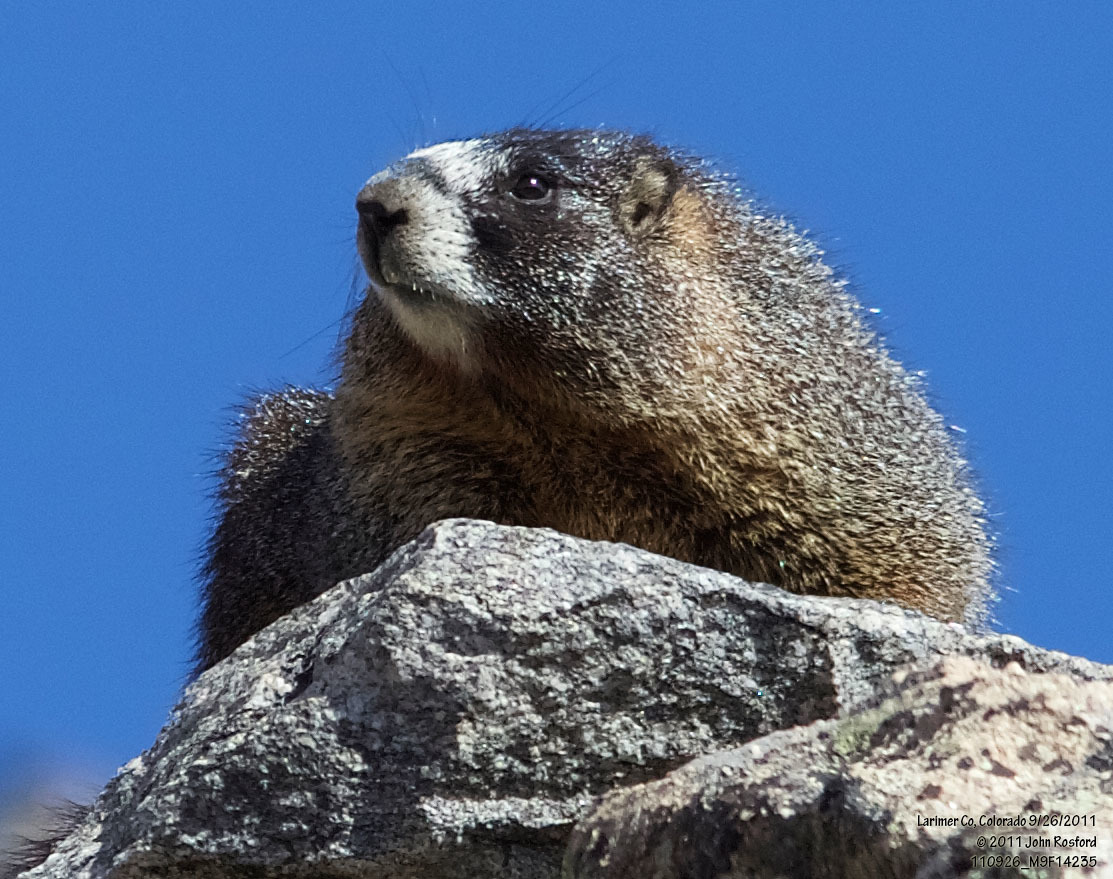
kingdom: Animalia
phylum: Chordata
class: Mammalia
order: Rodentia
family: Sciuridae
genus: Marmota
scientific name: Marmota flaviventris
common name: Yellow-bellied marmot
